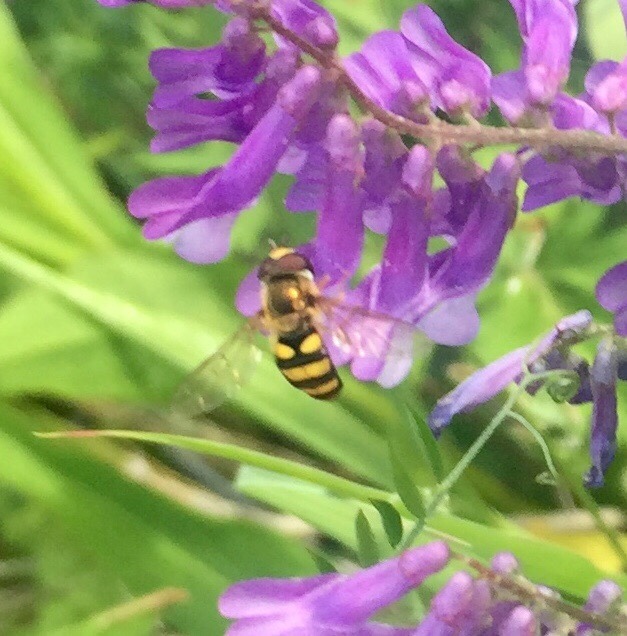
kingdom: Animalia
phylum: Arthropoda
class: Insecta
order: Diptera
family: Syrphidae
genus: Eupeodes
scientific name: Eupeodes
